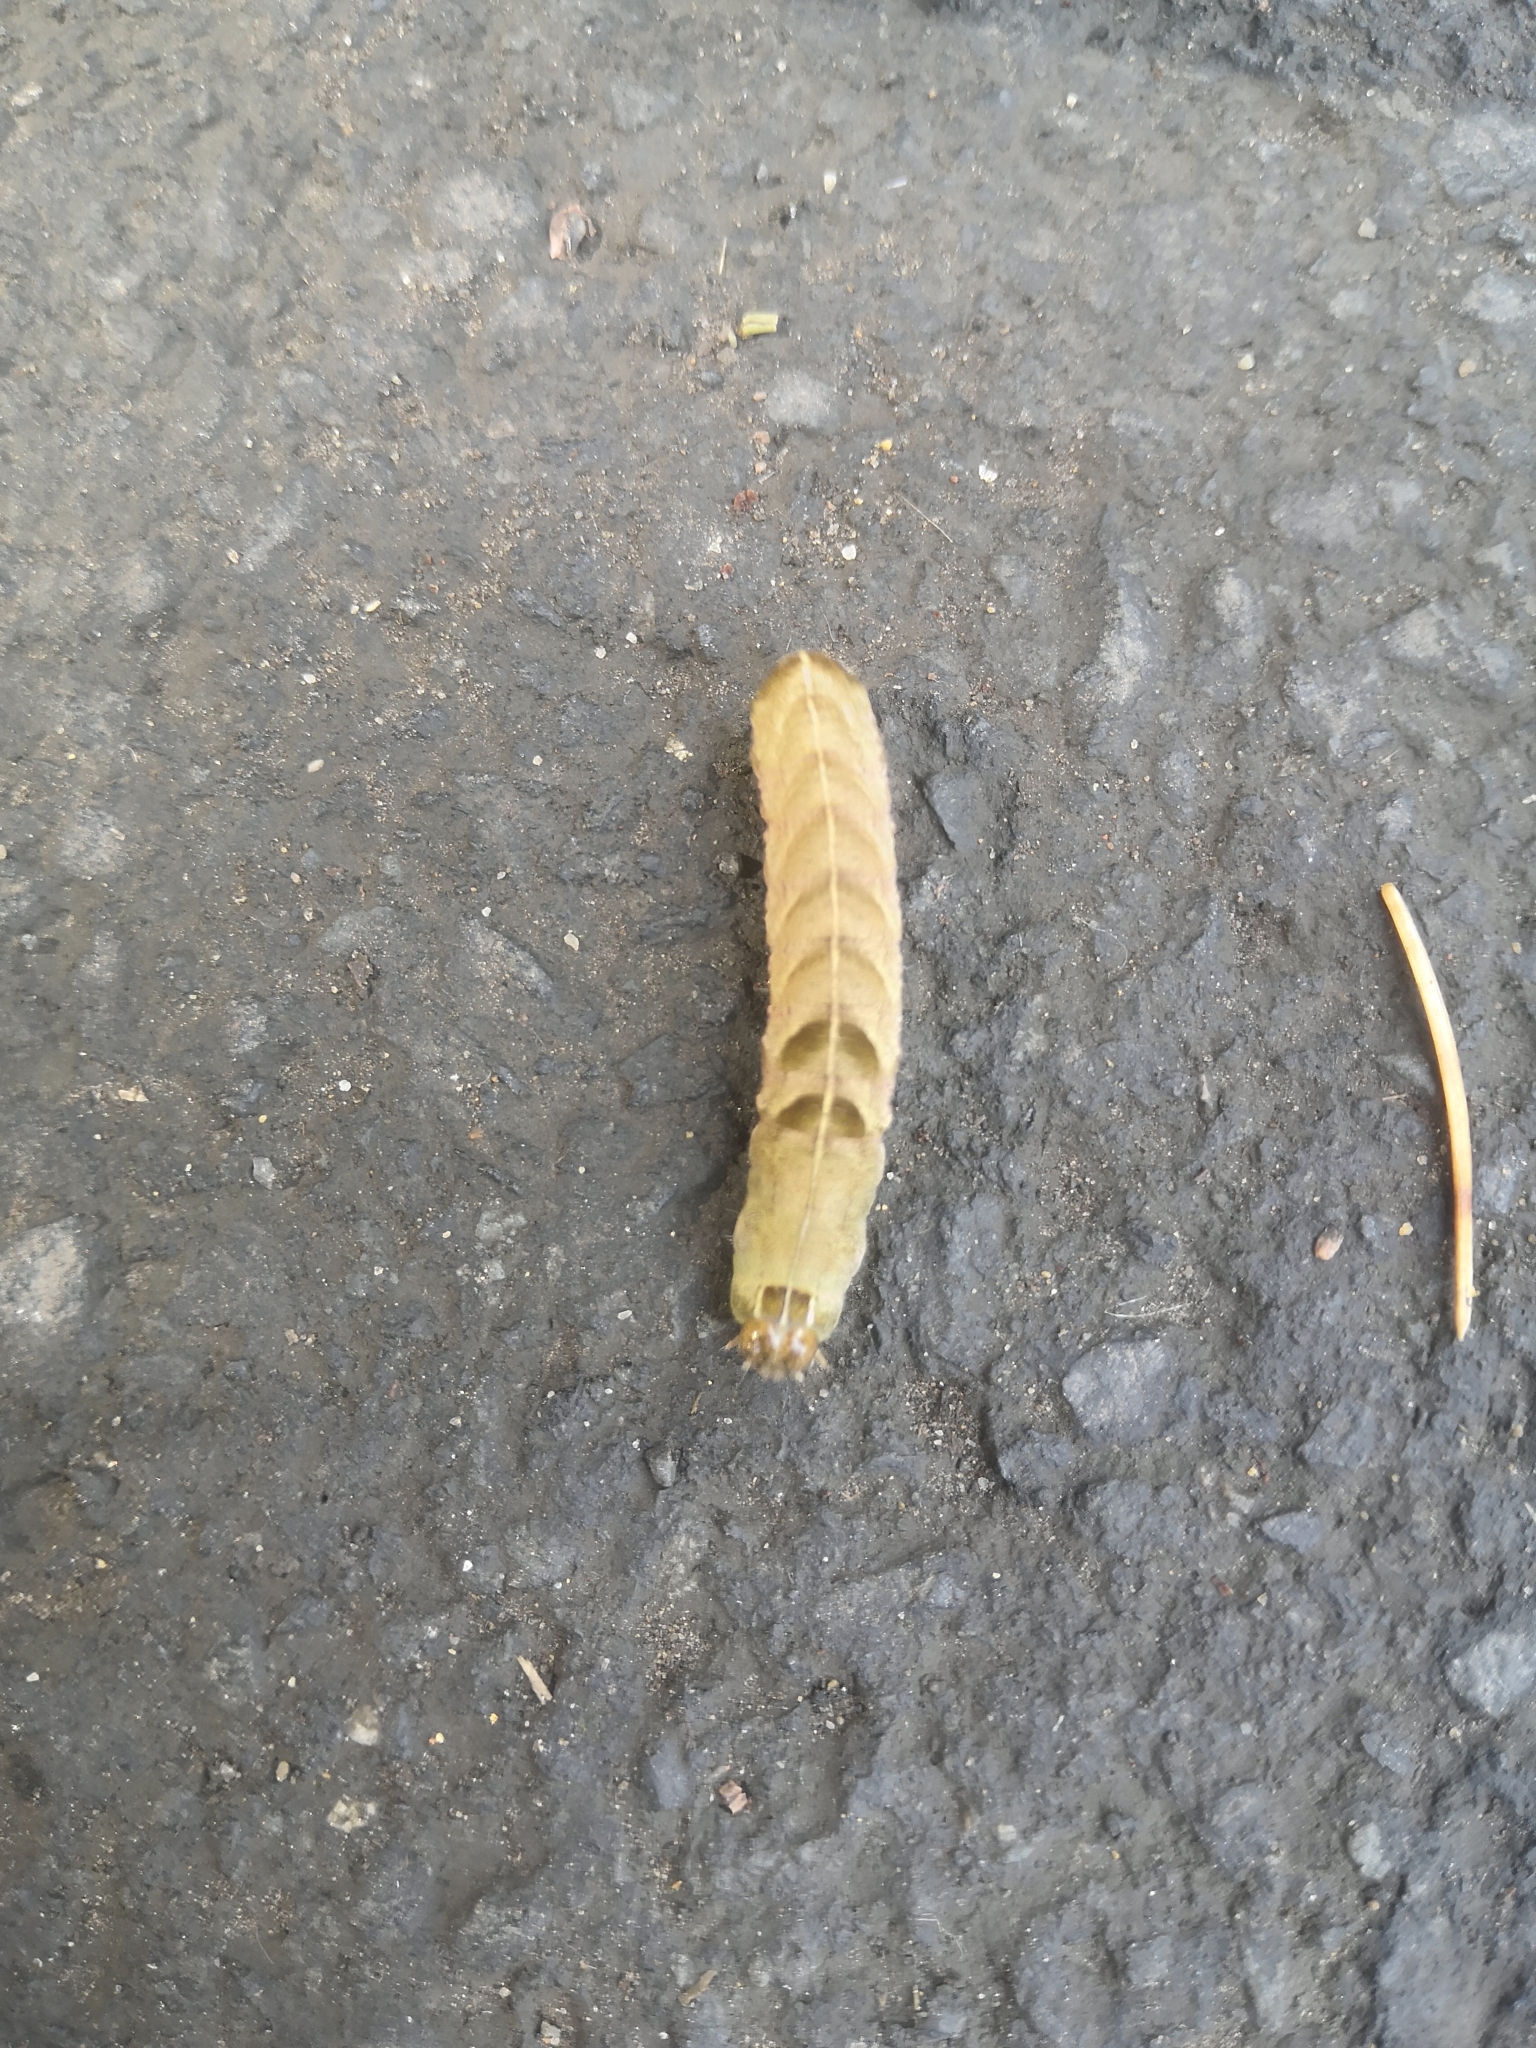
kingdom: Animalia
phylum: Arthropoda
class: Insecta
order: Lepidoptera
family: Noctuidae
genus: Melanchra
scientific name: Melanchra persicariae
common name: Dot moth
